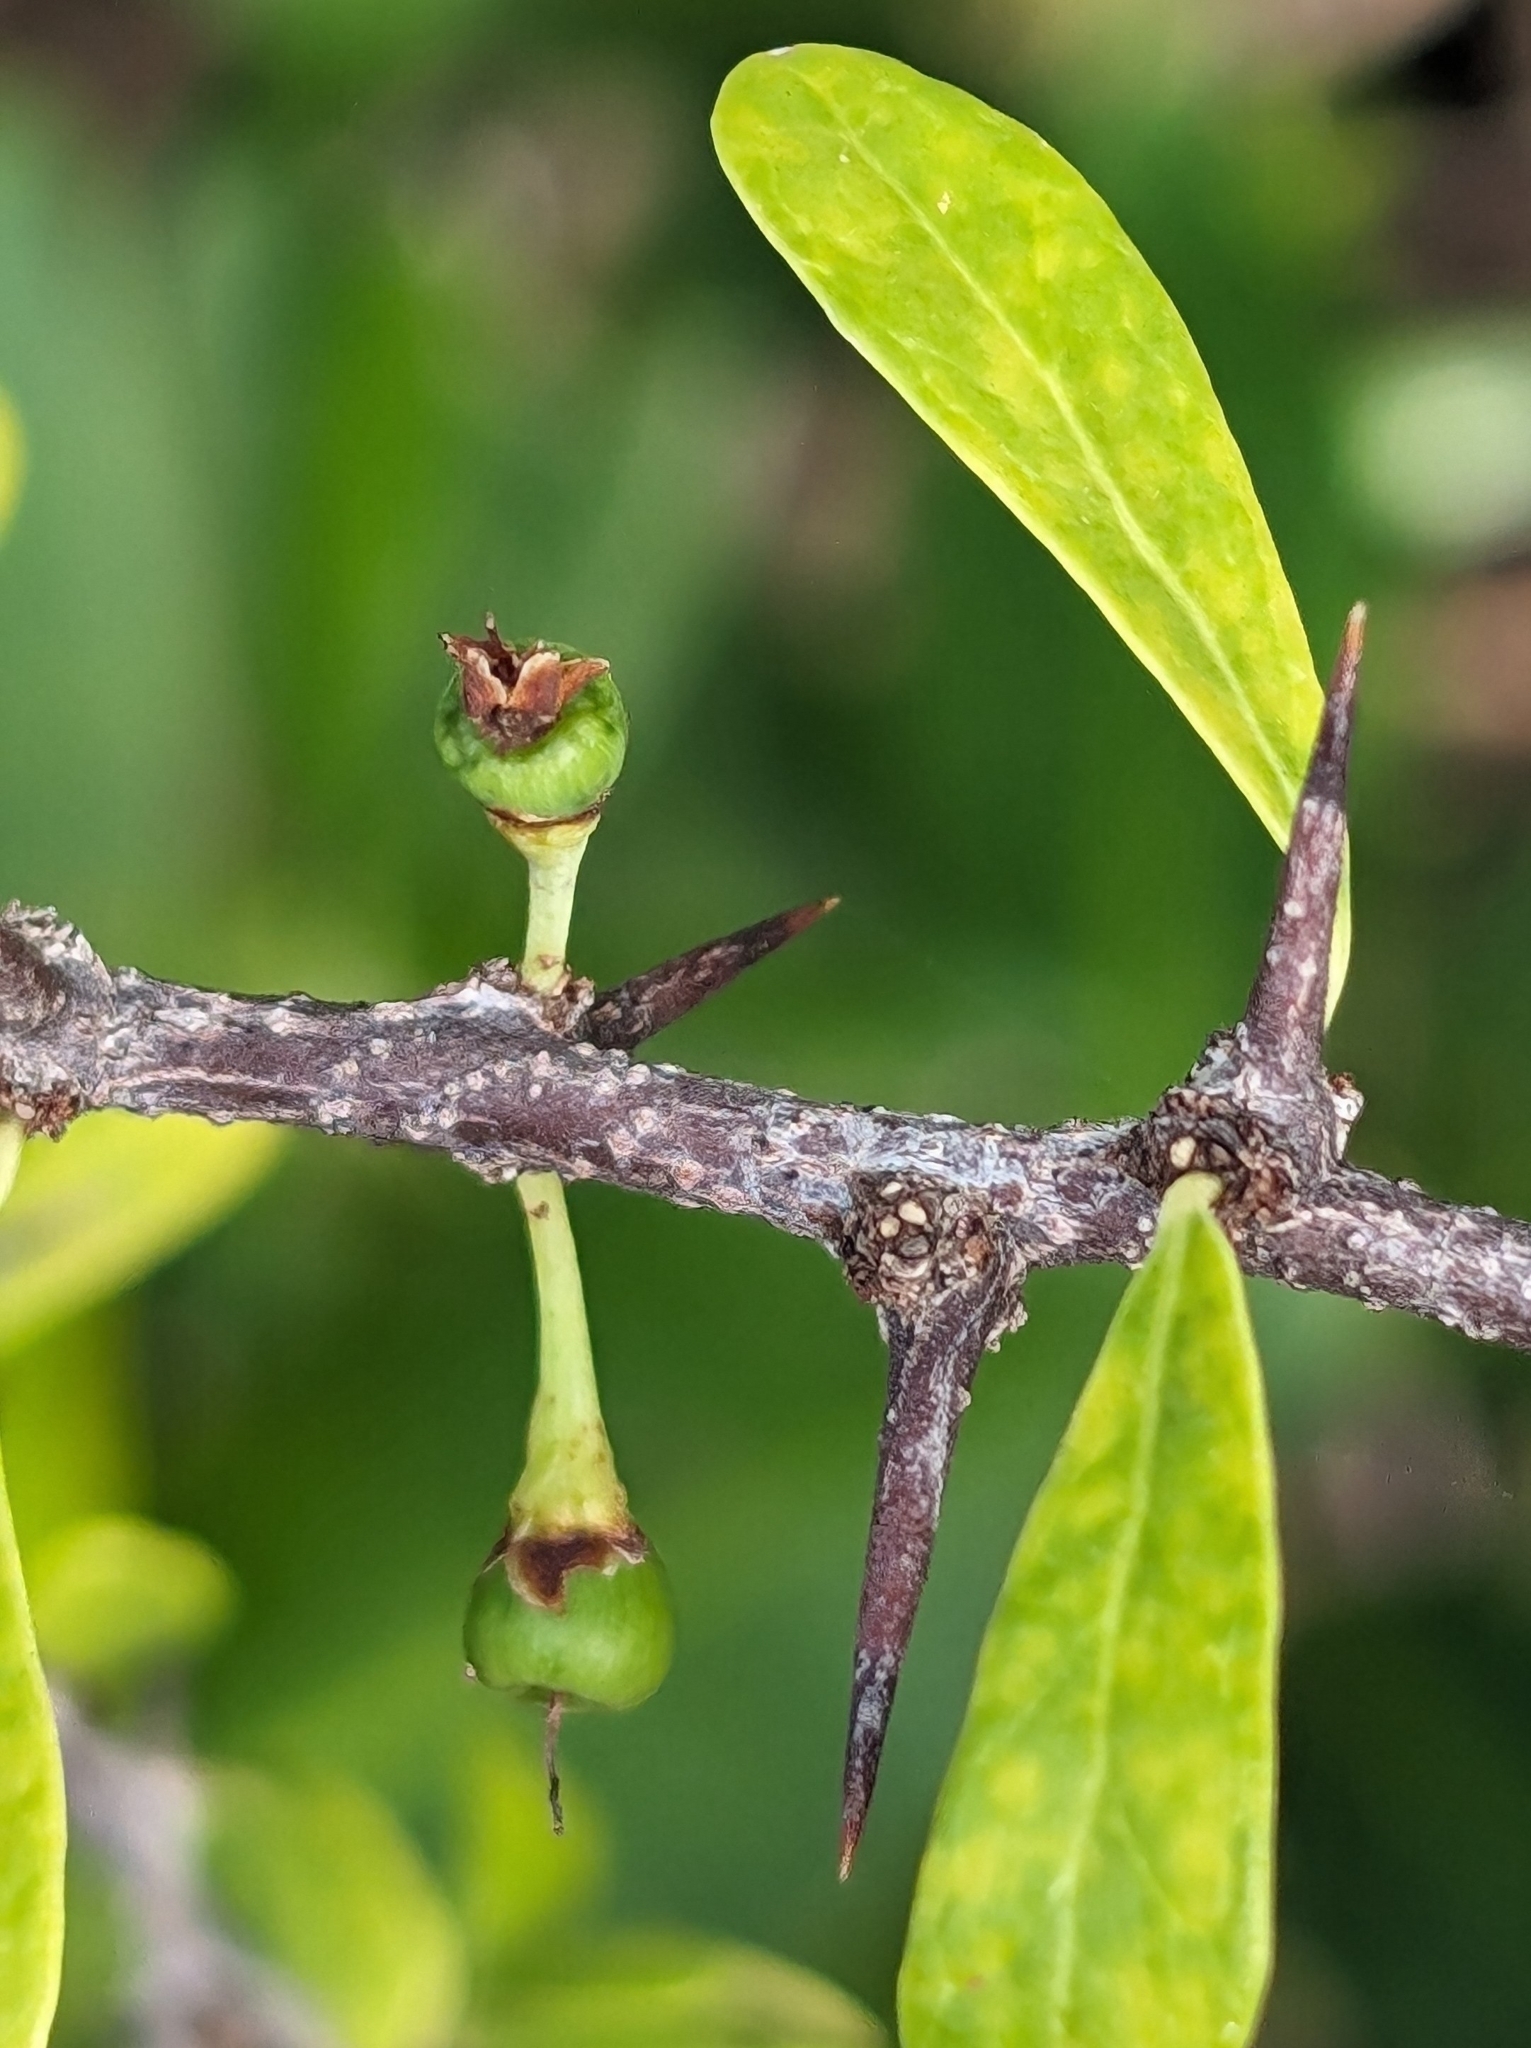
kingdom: Plantae
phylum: Tracheophyta
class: Magnoliopsida
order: Ericales
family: Sapotaceae
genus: Sideroxylon
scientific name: Sideroxylon celastrinum
